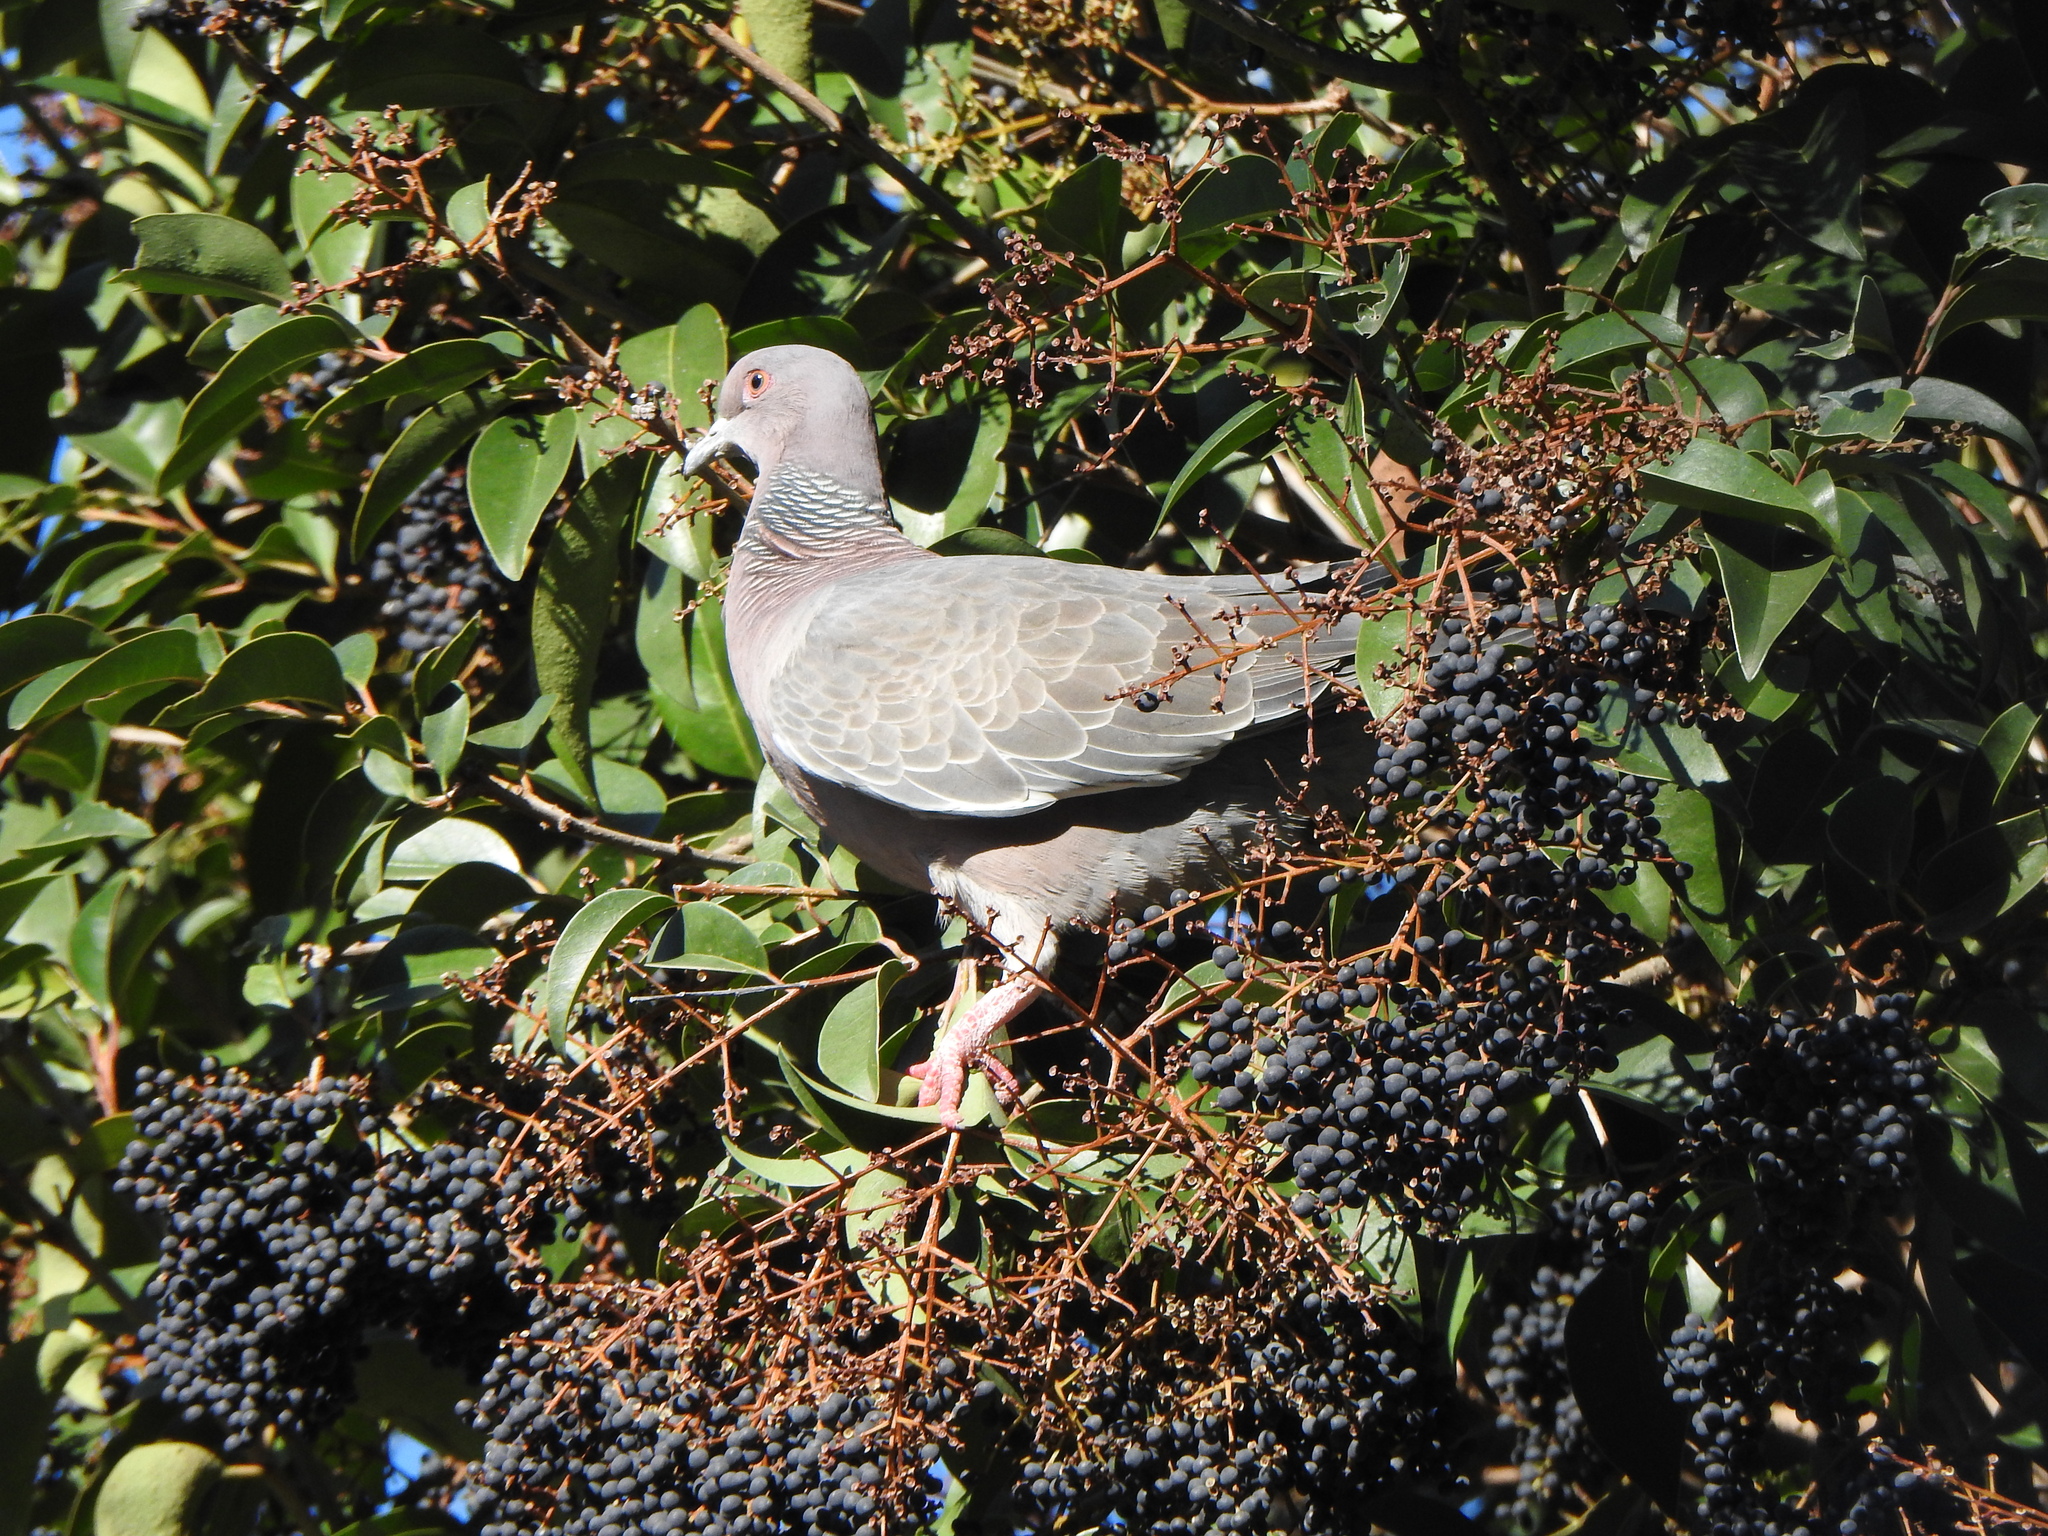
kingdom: Animalia
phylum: Chordata
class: Aves
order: Columbiformes
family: Columbidae
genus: Patagioenas
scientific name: Patagioenas picazuro
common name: Picazuro pigeon
